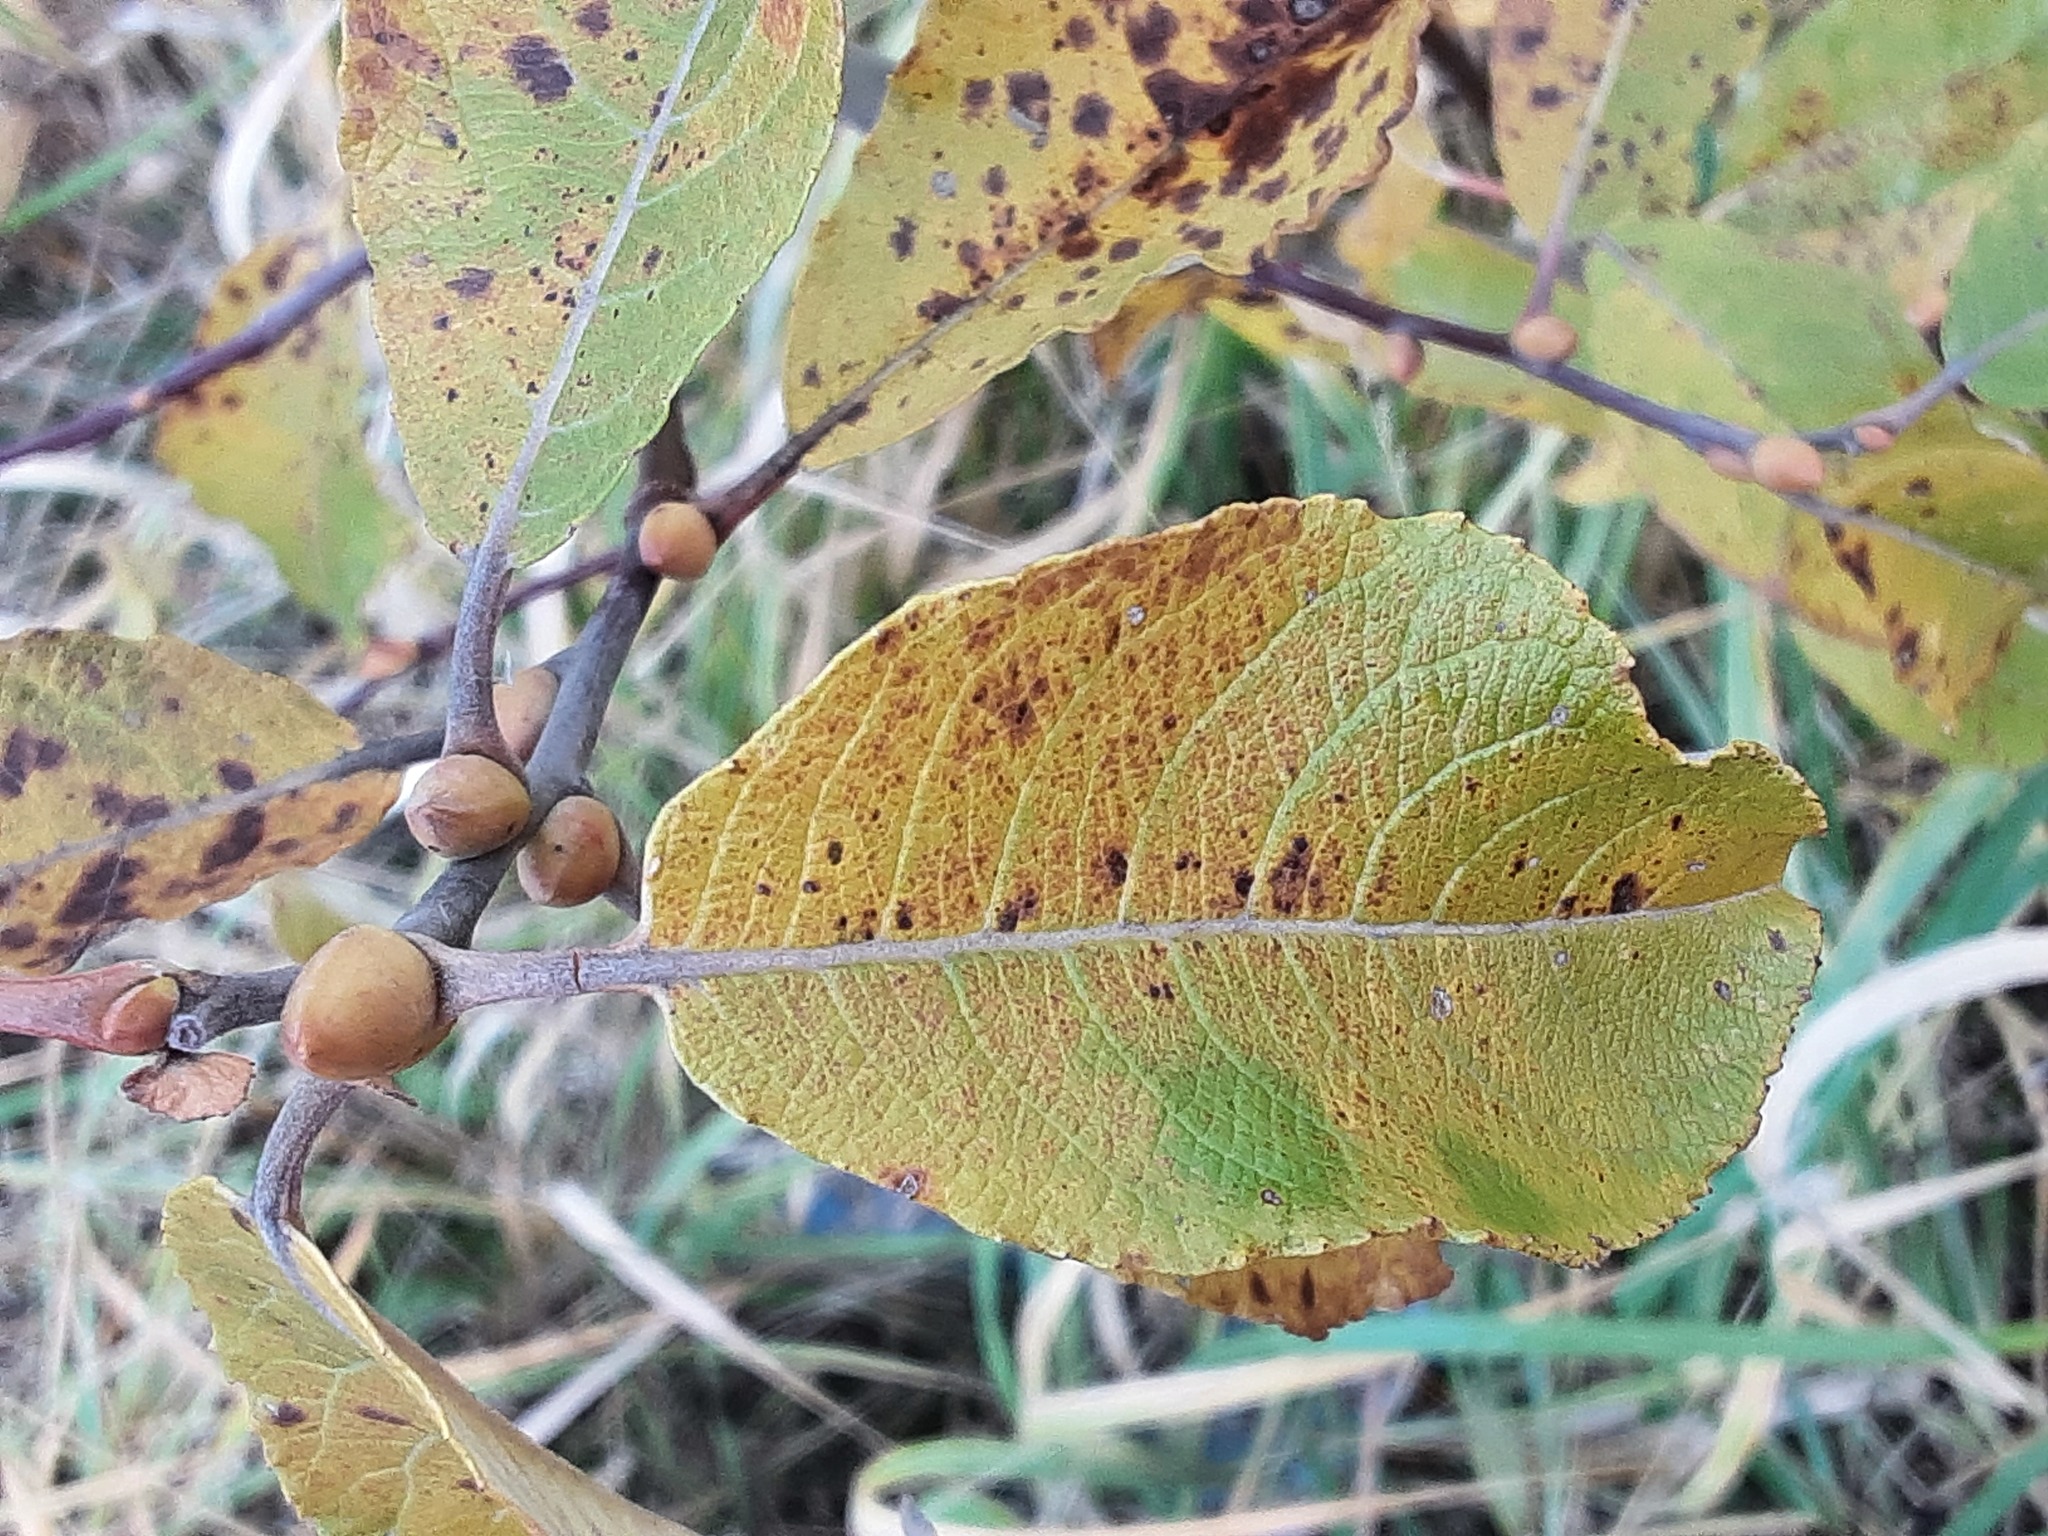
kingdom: Plantae
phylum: Tracheophyta
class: Magnoliopsida
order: Malpighiales
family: Salicaceae
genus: Salix
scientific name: Salix caprea
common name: Goat willow
